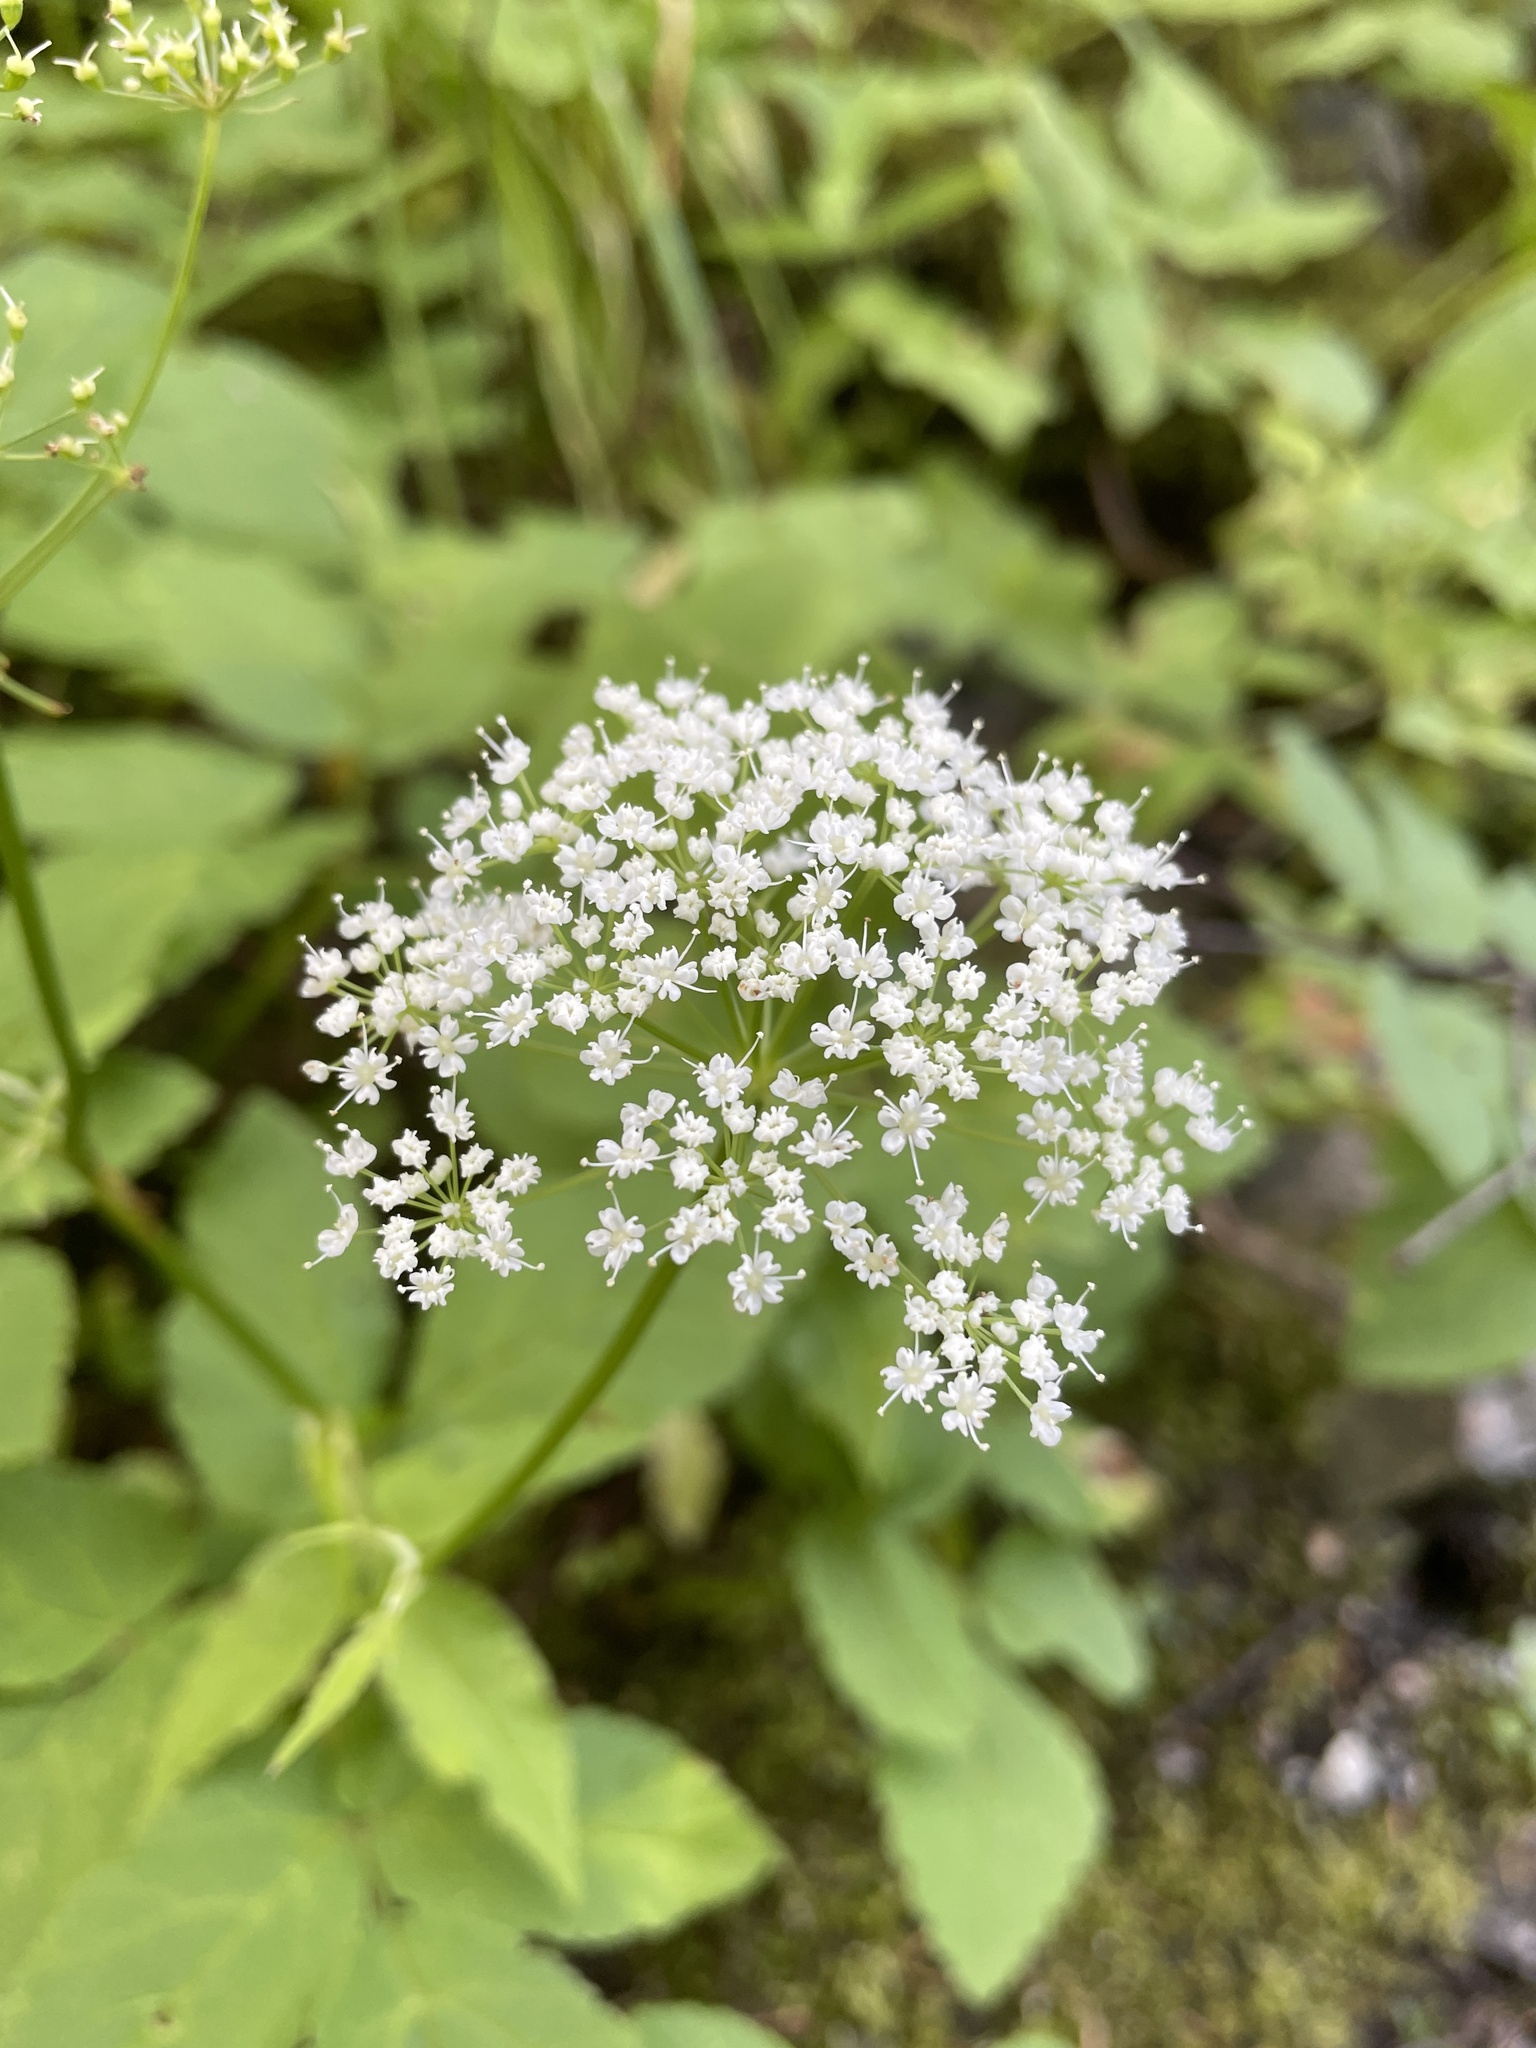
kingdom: Plantae
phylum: Tracheophyta
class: Magnoliopsida
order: Apiales
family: Apiaceae
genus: Aegopodium
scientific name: Aegopodium podagraria
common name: Ground-elder
